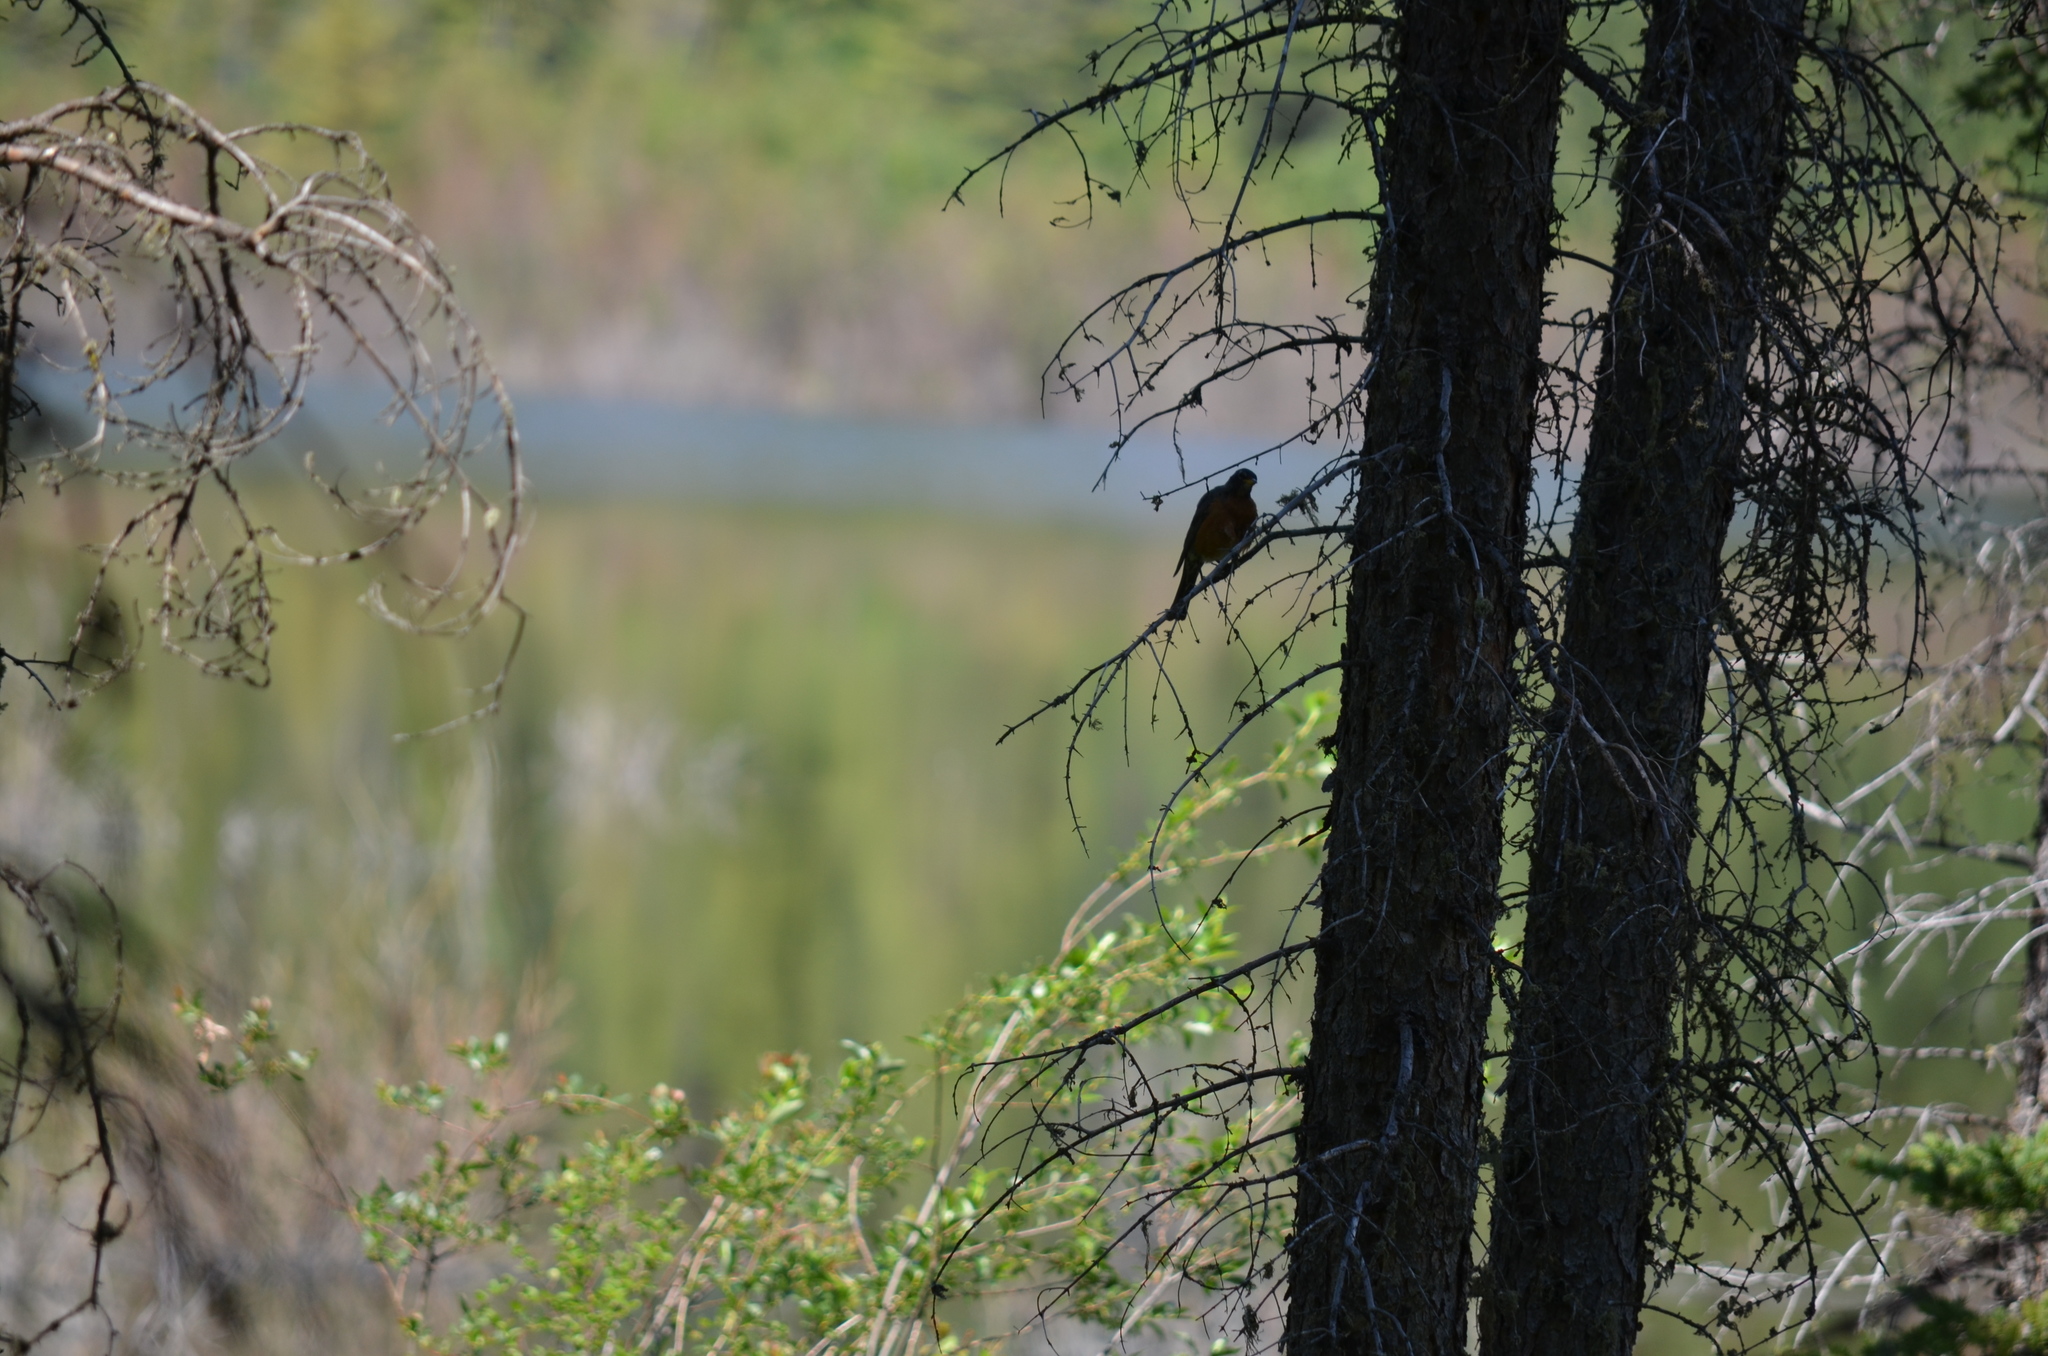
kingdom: Animalia
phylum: Chordata
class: Aves
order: Passeriformes
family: Turdidae
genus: Turdus
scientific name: Turdus migratorius
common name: American robin
